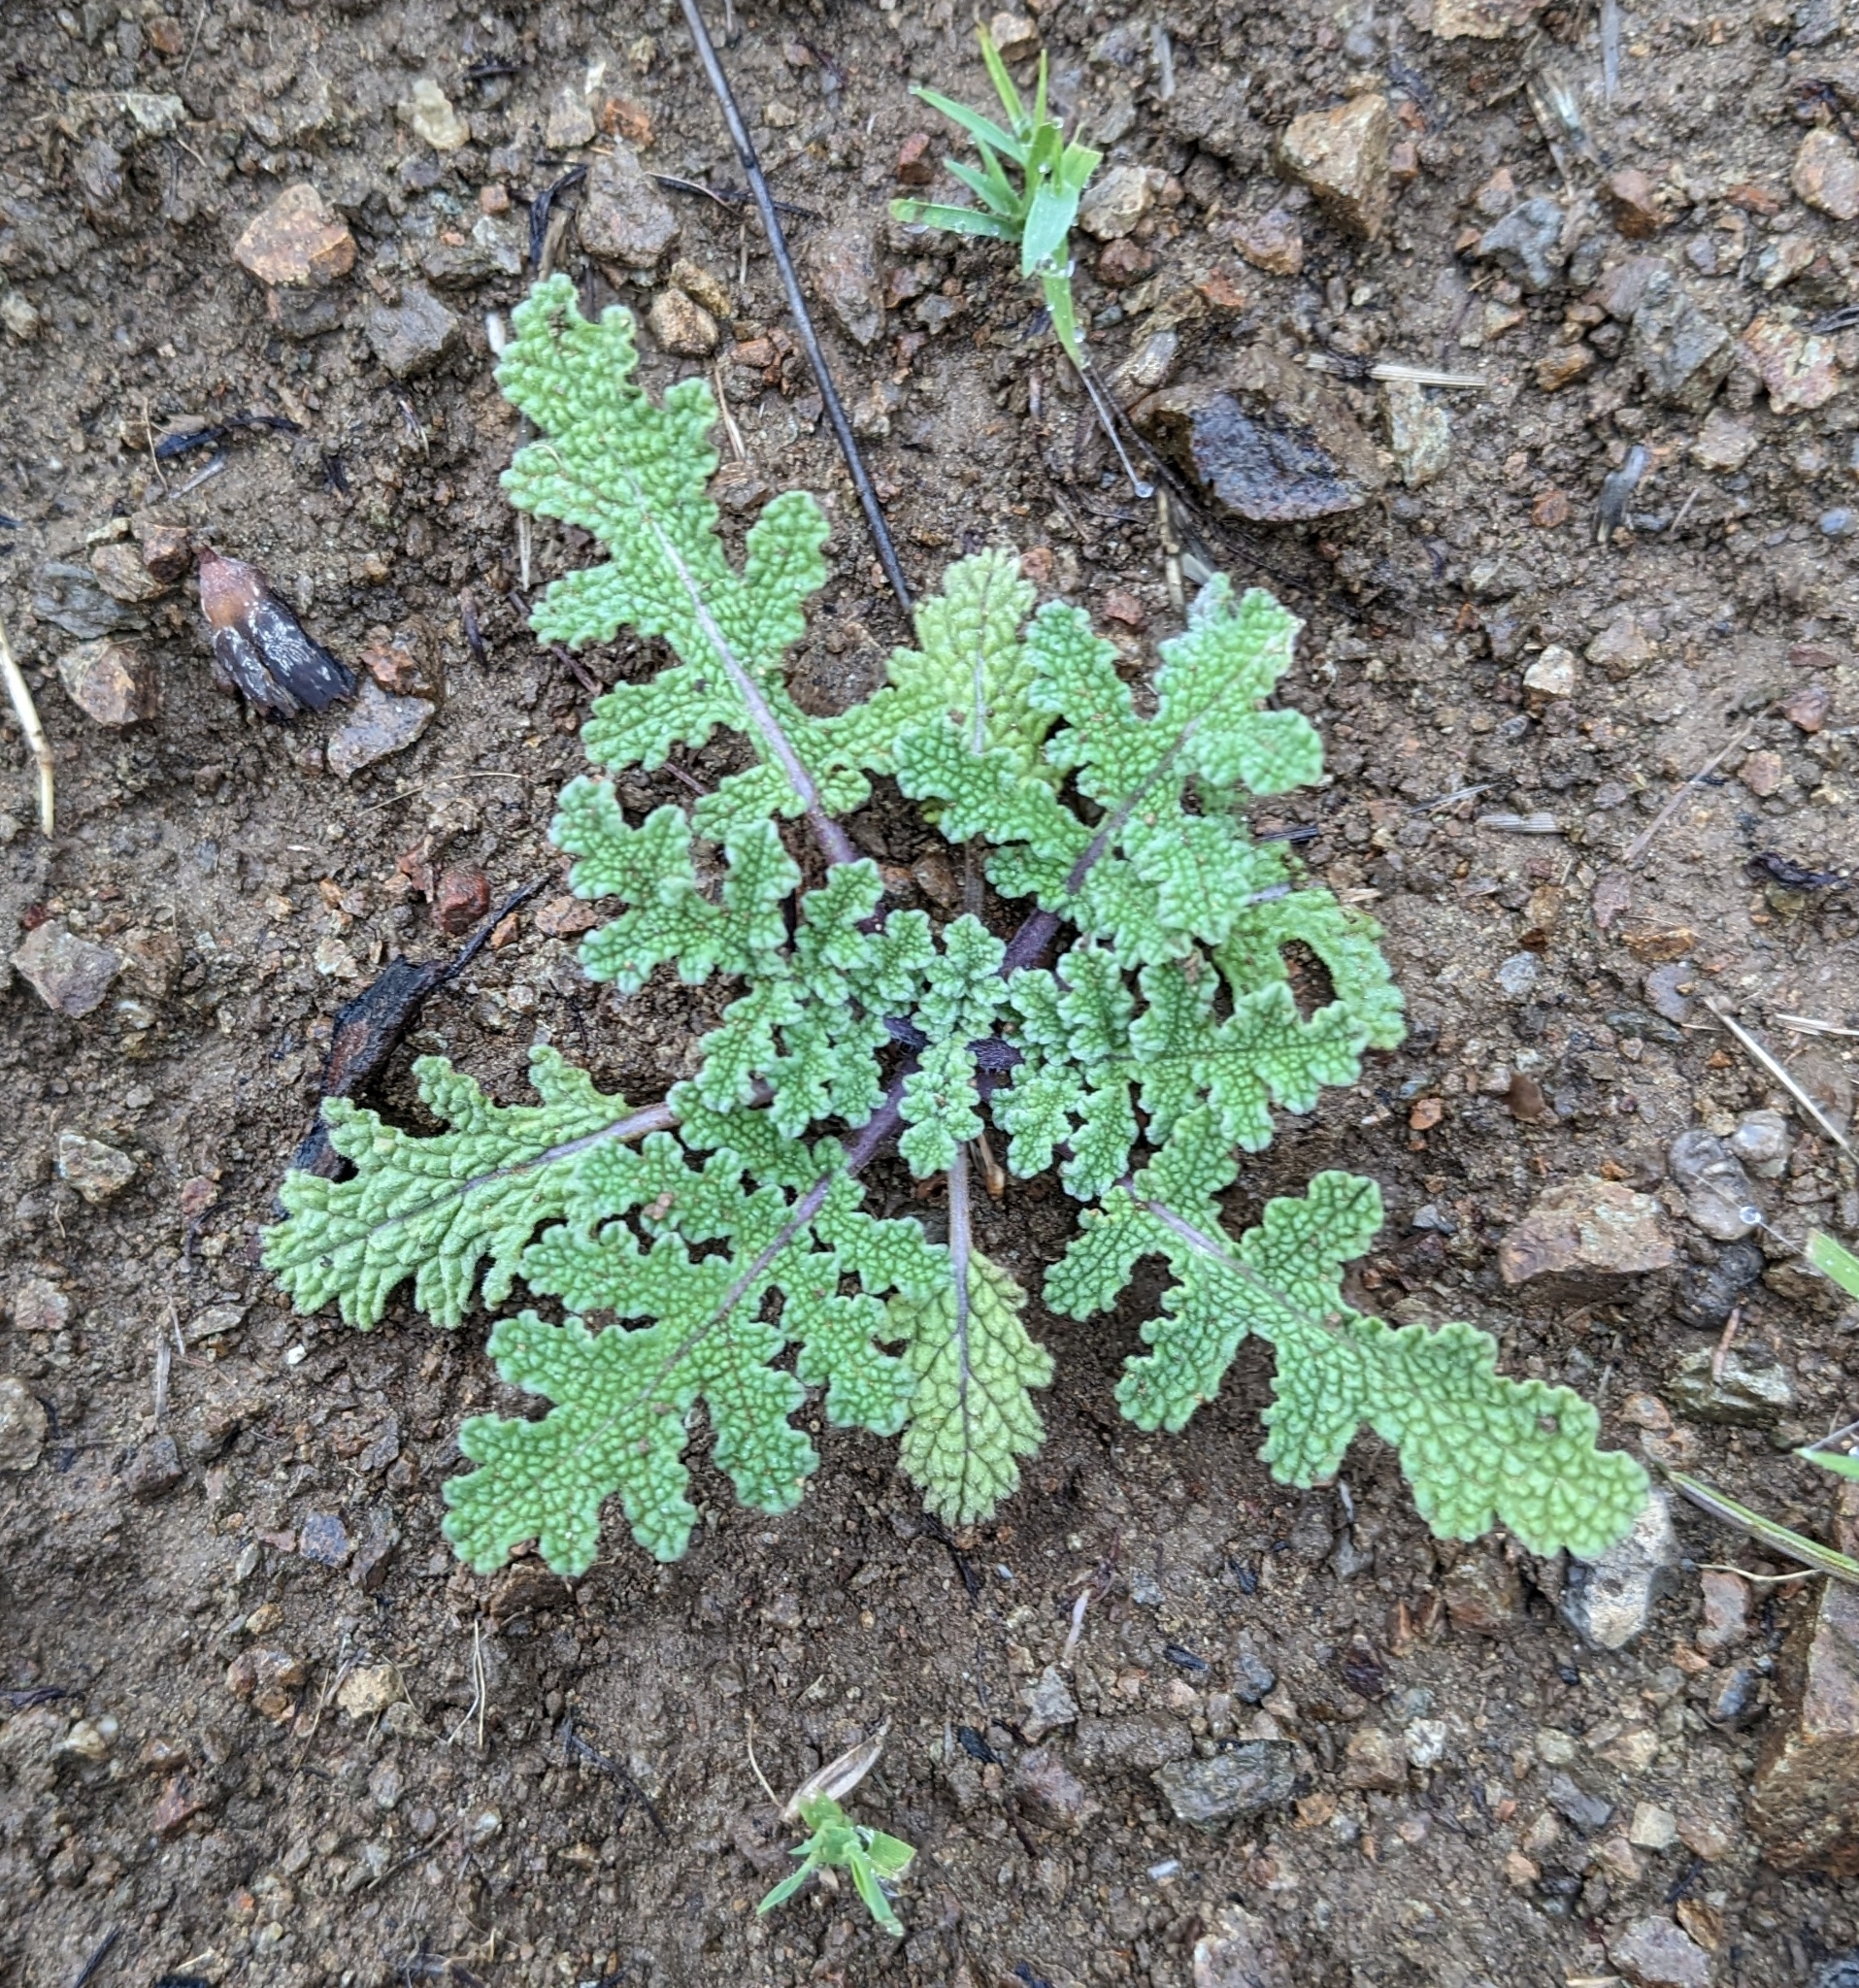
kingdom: Plantae
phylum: Tracheophyta
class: Magnoliopsida
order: Lamiales
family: Lamiaceae
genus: Salvia
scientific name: Salvia columbariae
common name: Chia
